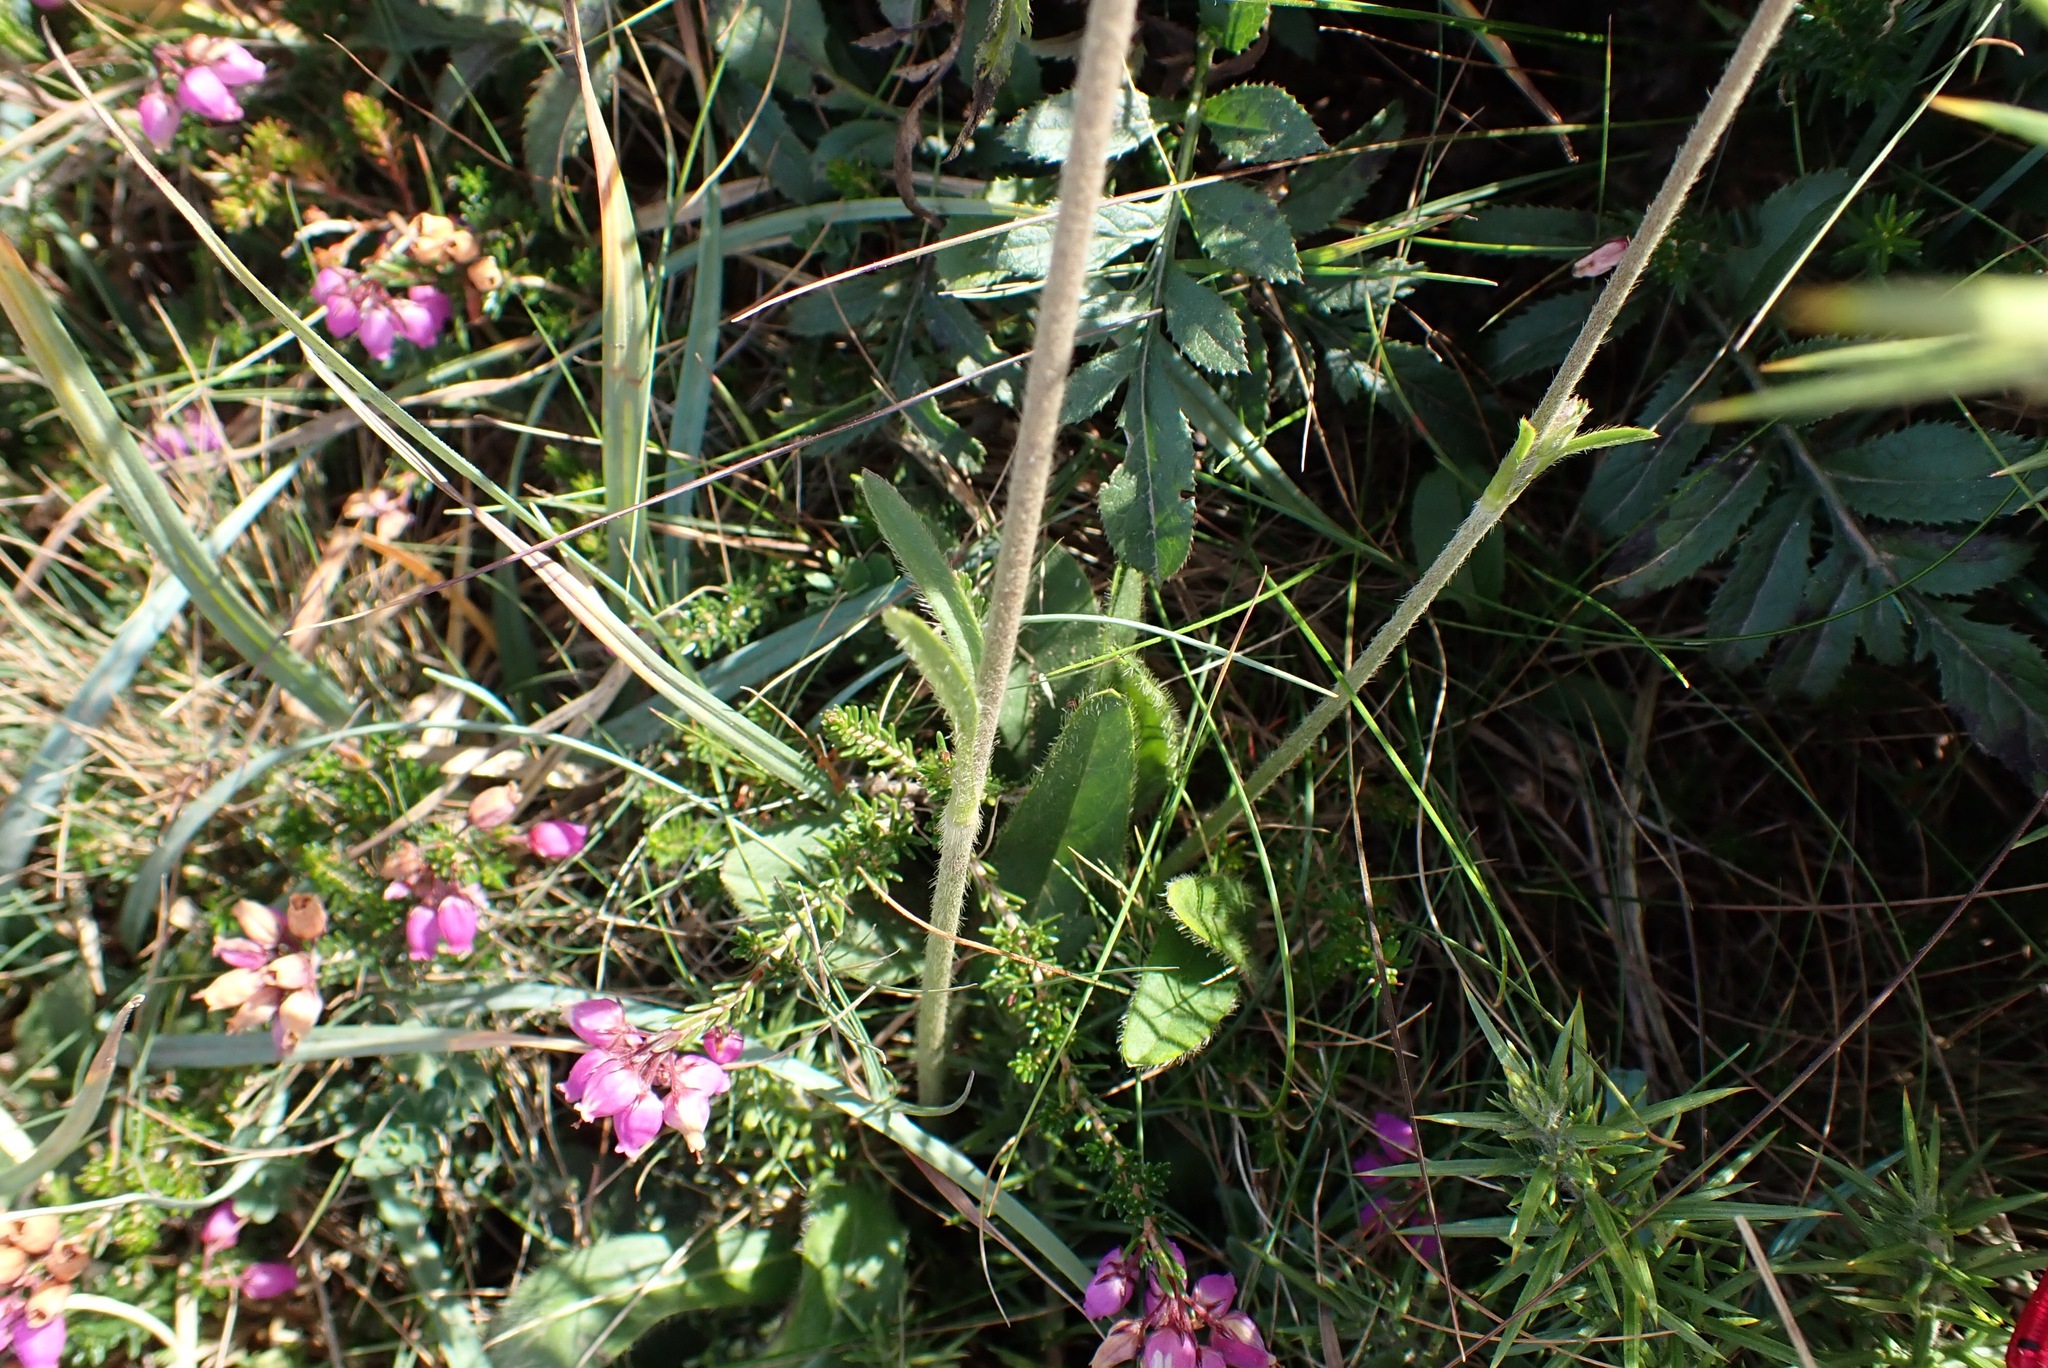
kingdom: Plantae
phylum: Tracheophyta
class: Magnoliopsida
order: Dipsacales
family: Caprifoliaceae
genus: Succisa
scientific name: Succisa pratensis
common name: Devil's-bit
